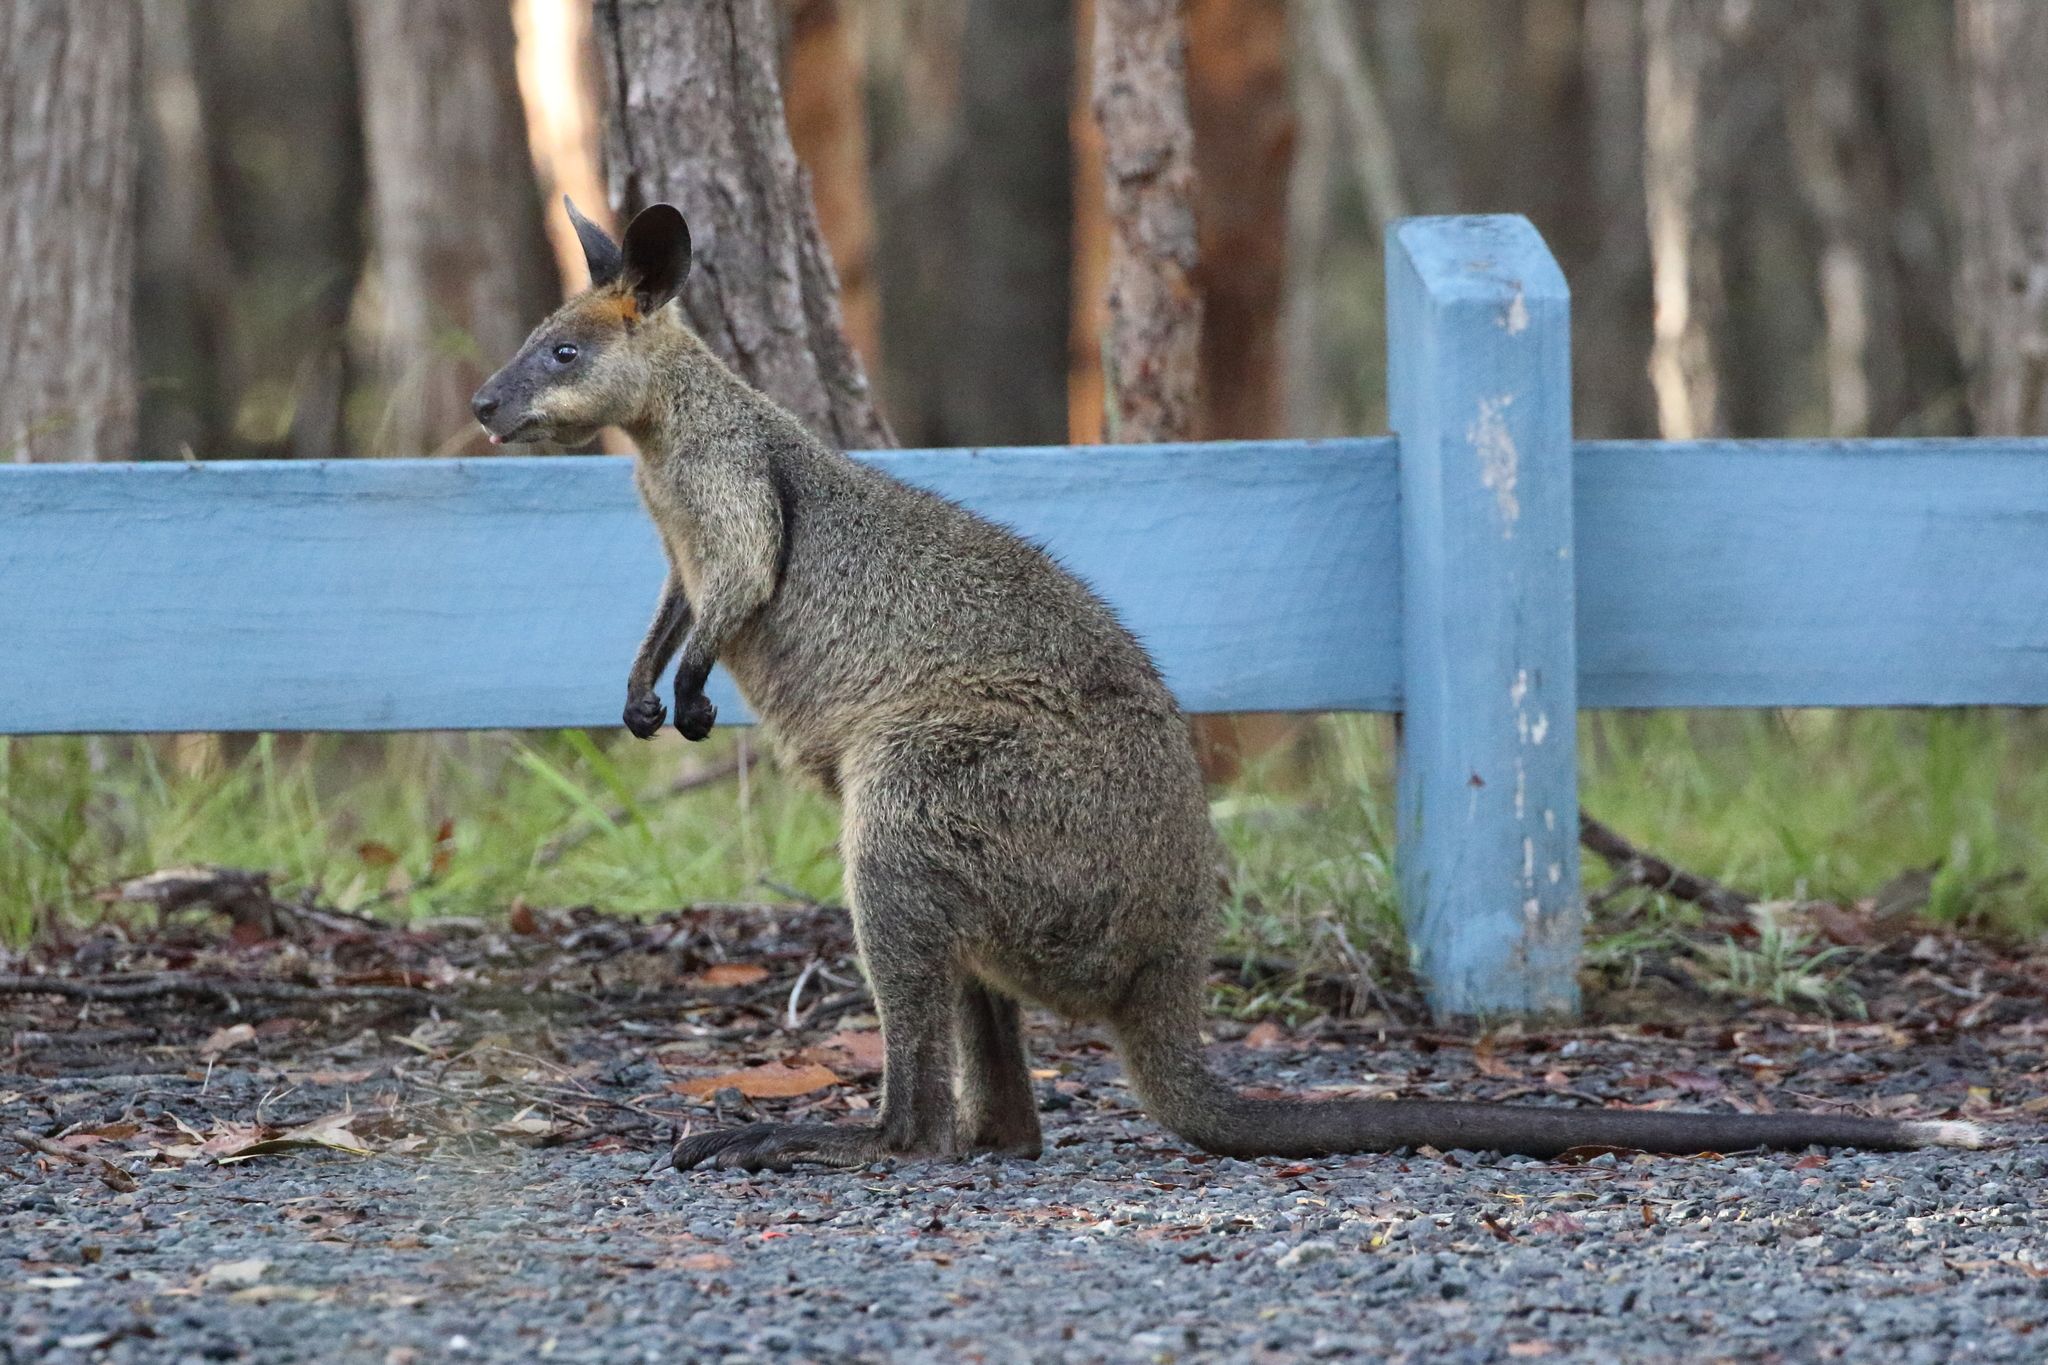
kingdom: Animalia
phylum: Chordata
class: Mammalia
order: Diprotodontia
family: Macropodidae
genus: Wallabia
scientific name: Wallabia bicolor
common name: Swamp wallaby
